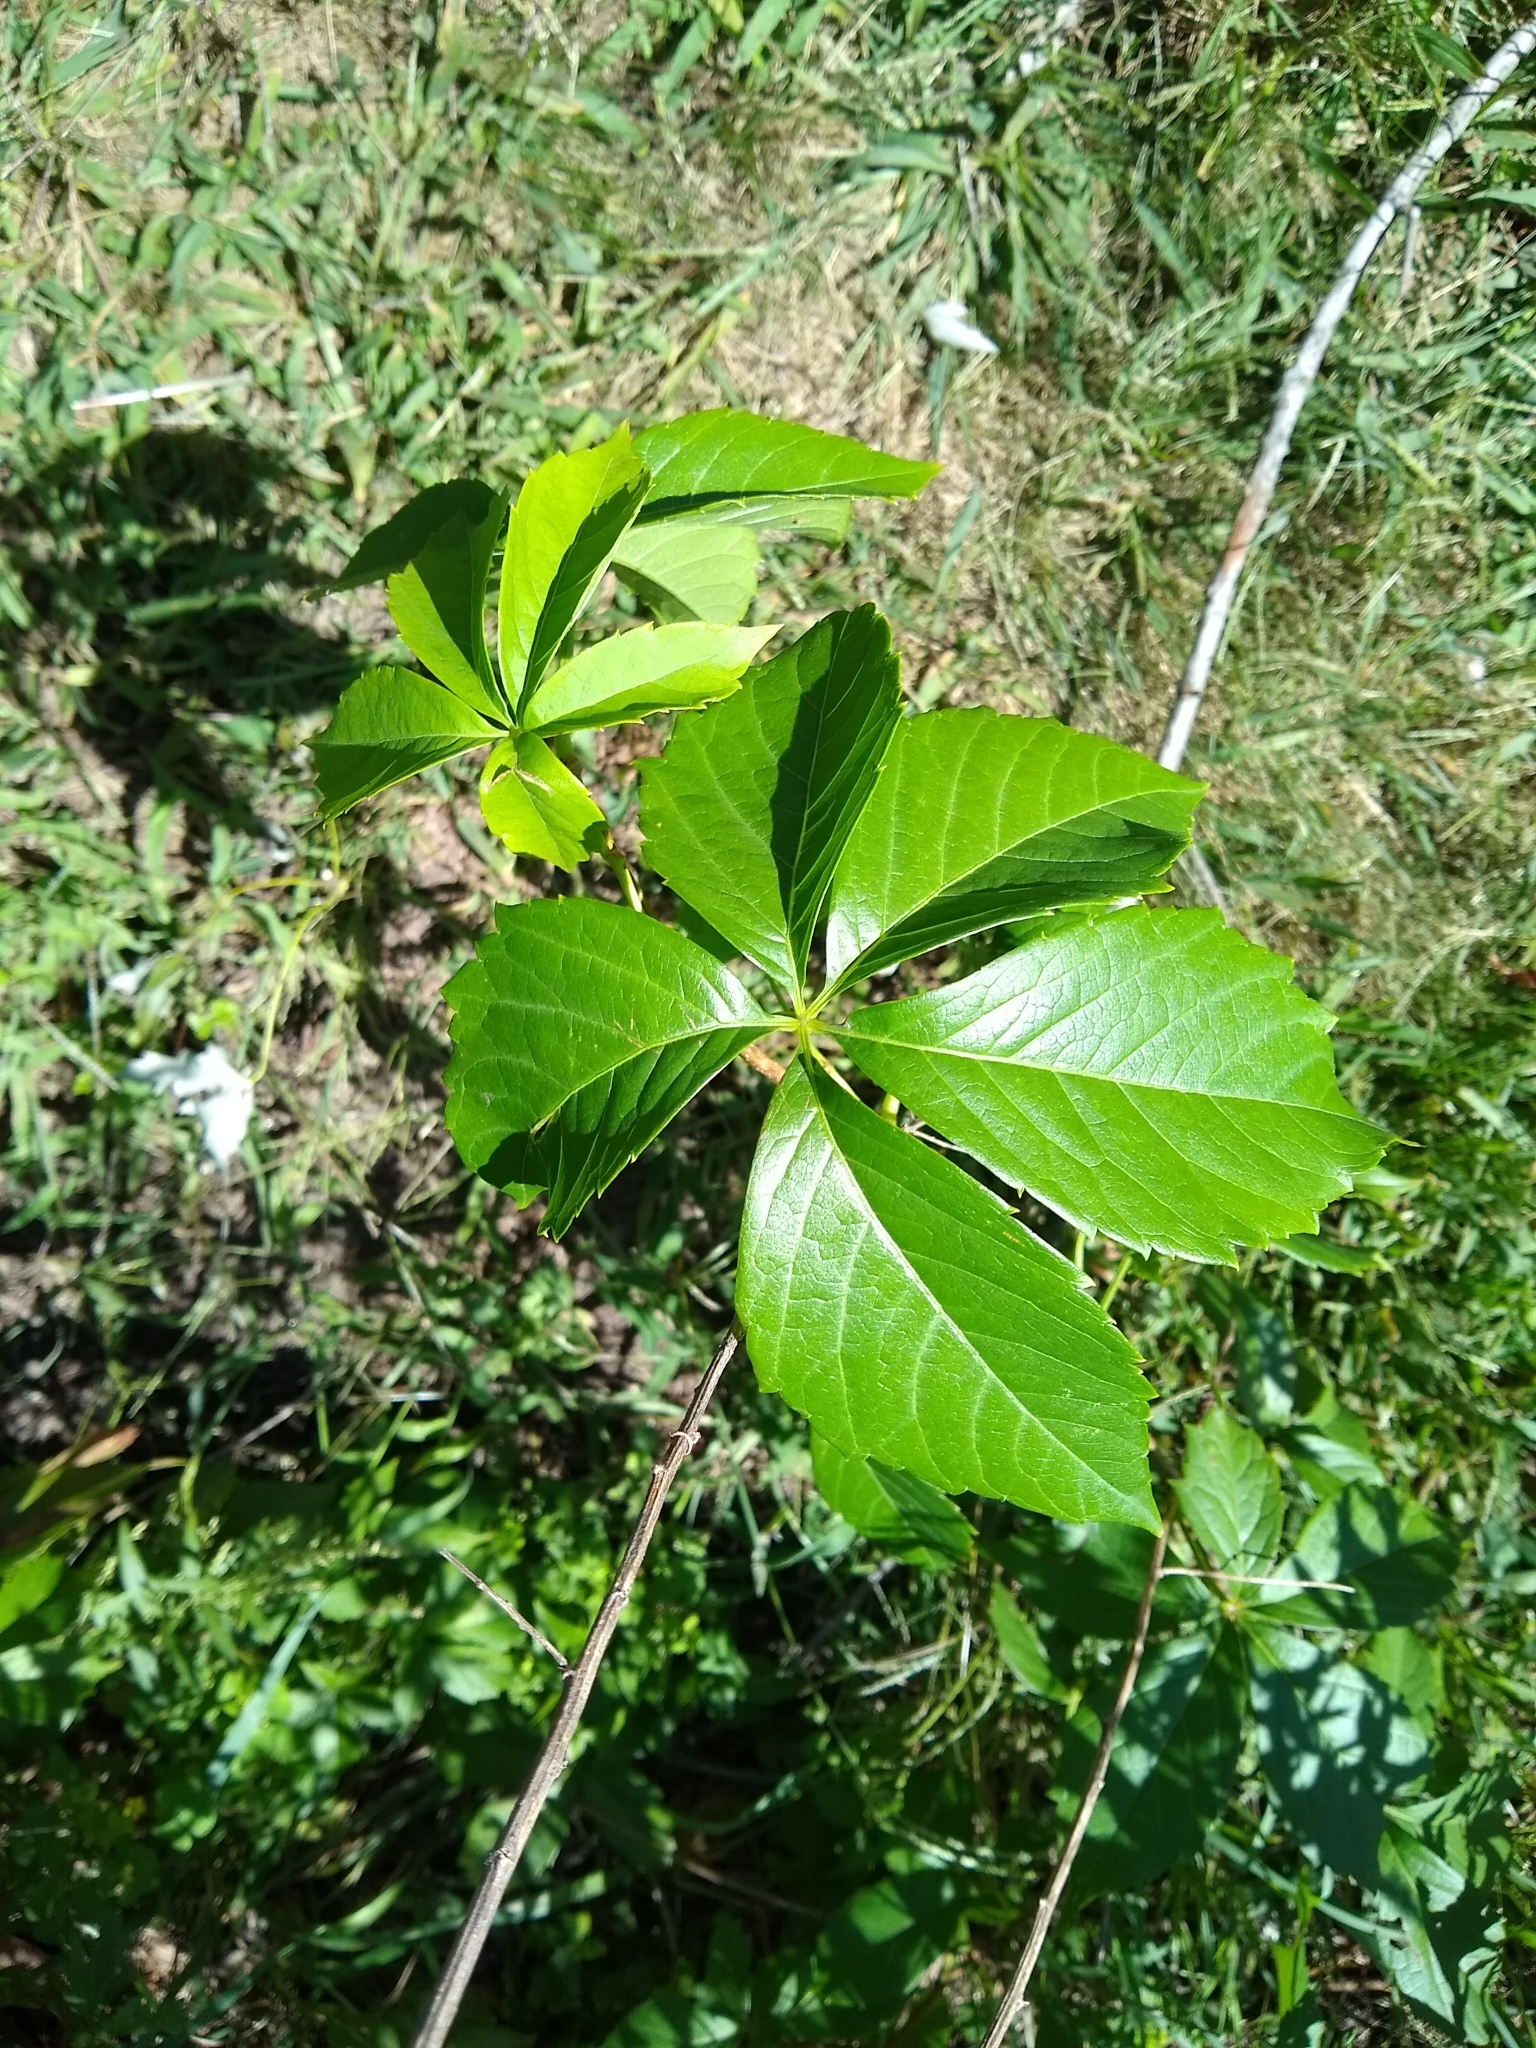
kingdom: Plantae
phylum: Tracheophyta
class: Magnoliopsida
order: Vitales
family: Vitaceae
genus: Parthenocissus
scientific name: Parthenocissus quinquefolia
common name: Virginia-creeper
